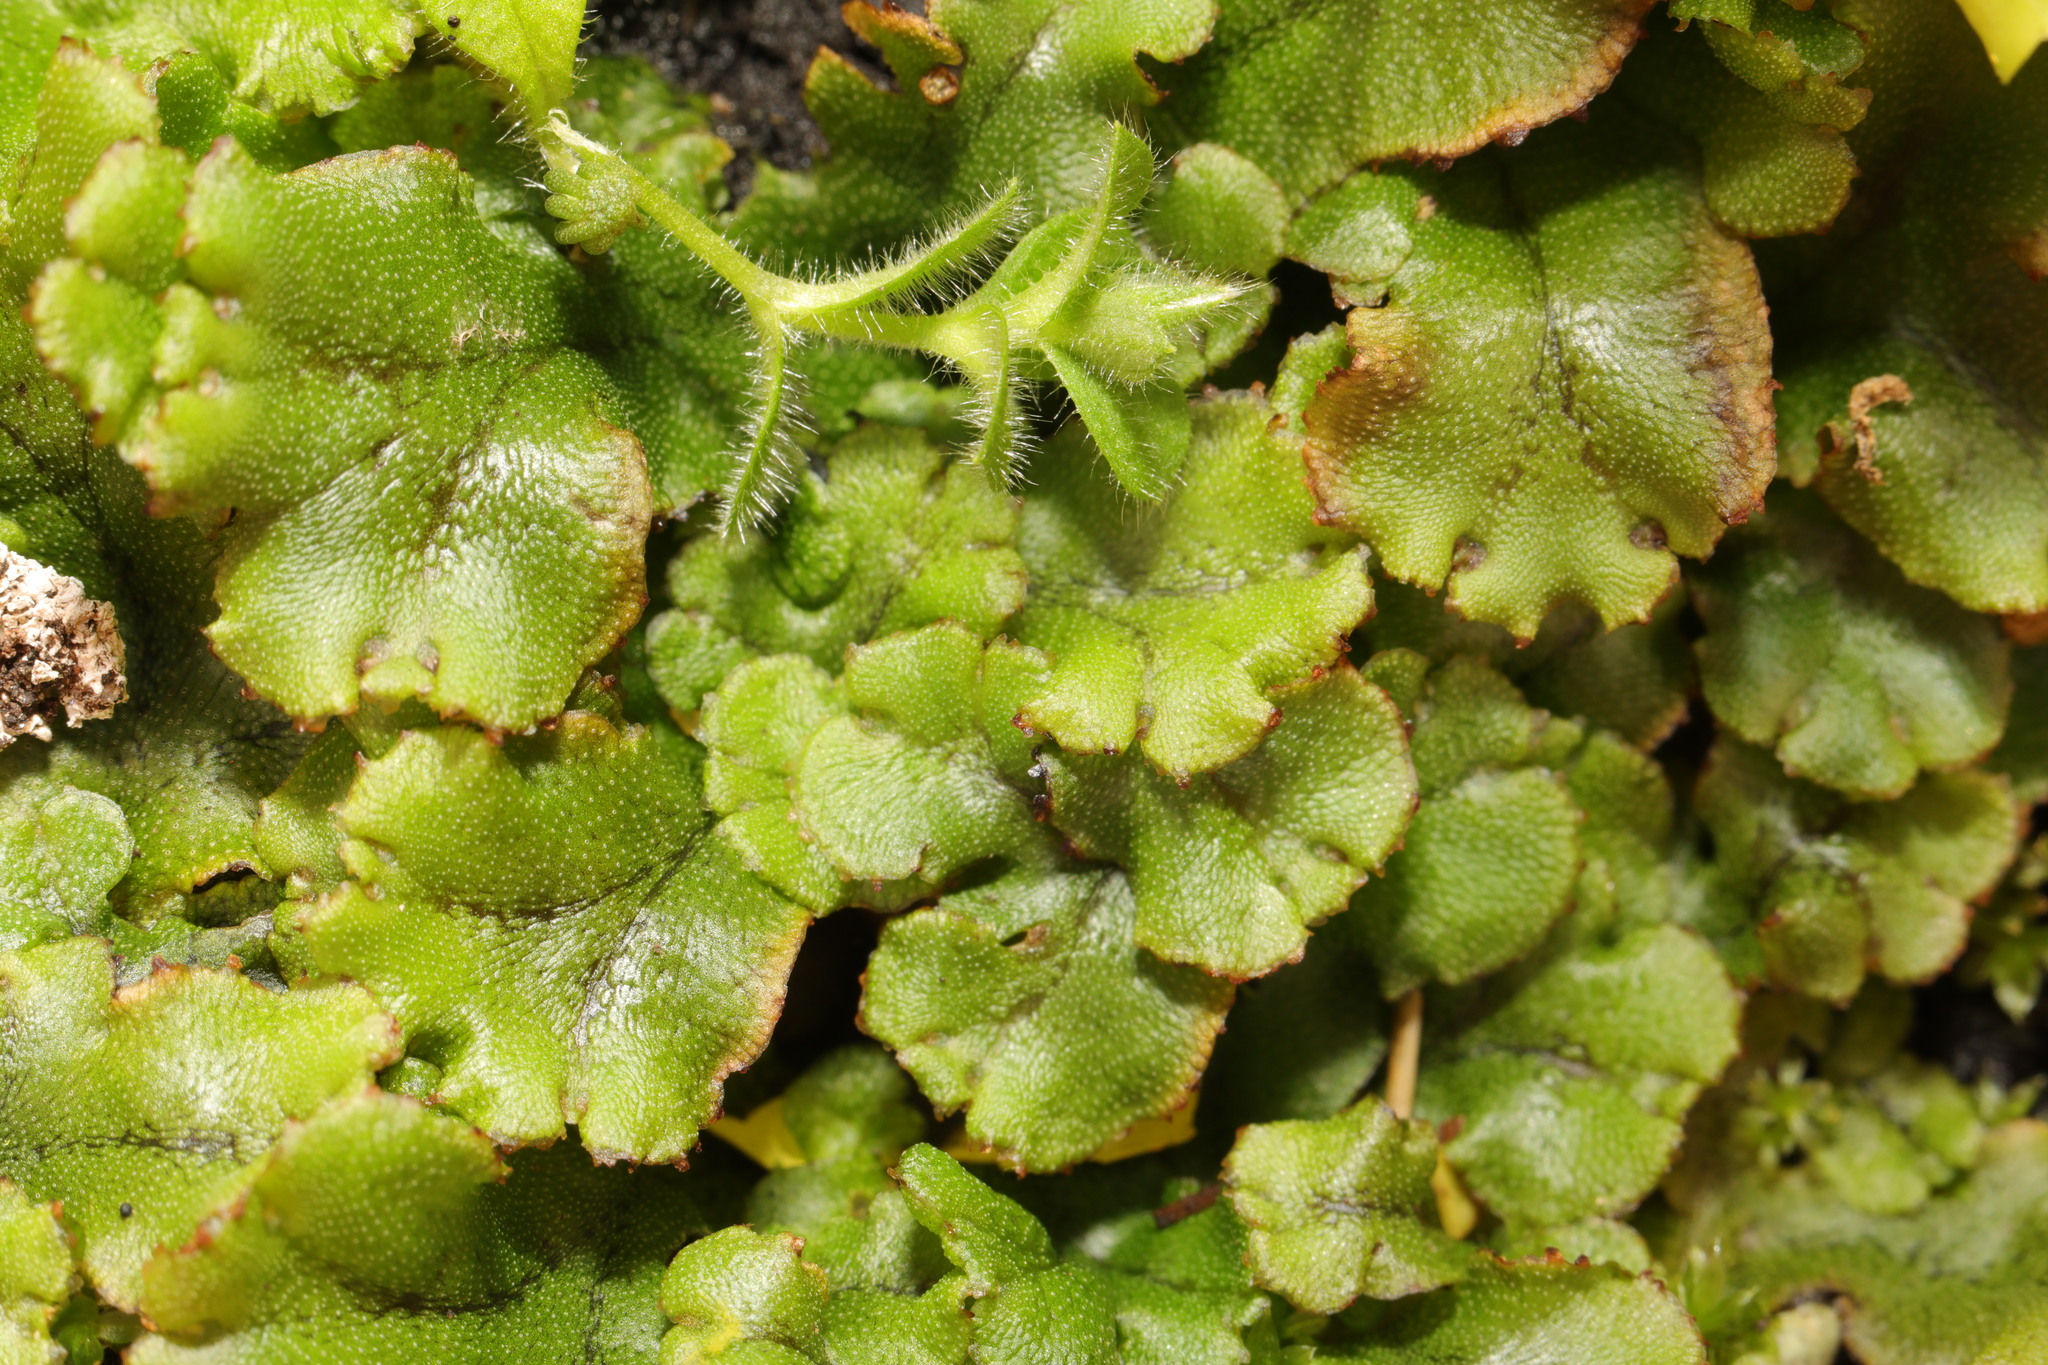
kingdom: Plantae
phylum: Marchantiophyta
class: Marchantiopsida
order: Marchantiales
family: Marchantiaceae
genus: Marchantia
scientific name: Marchantia polymorpha
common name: Common liverwort
